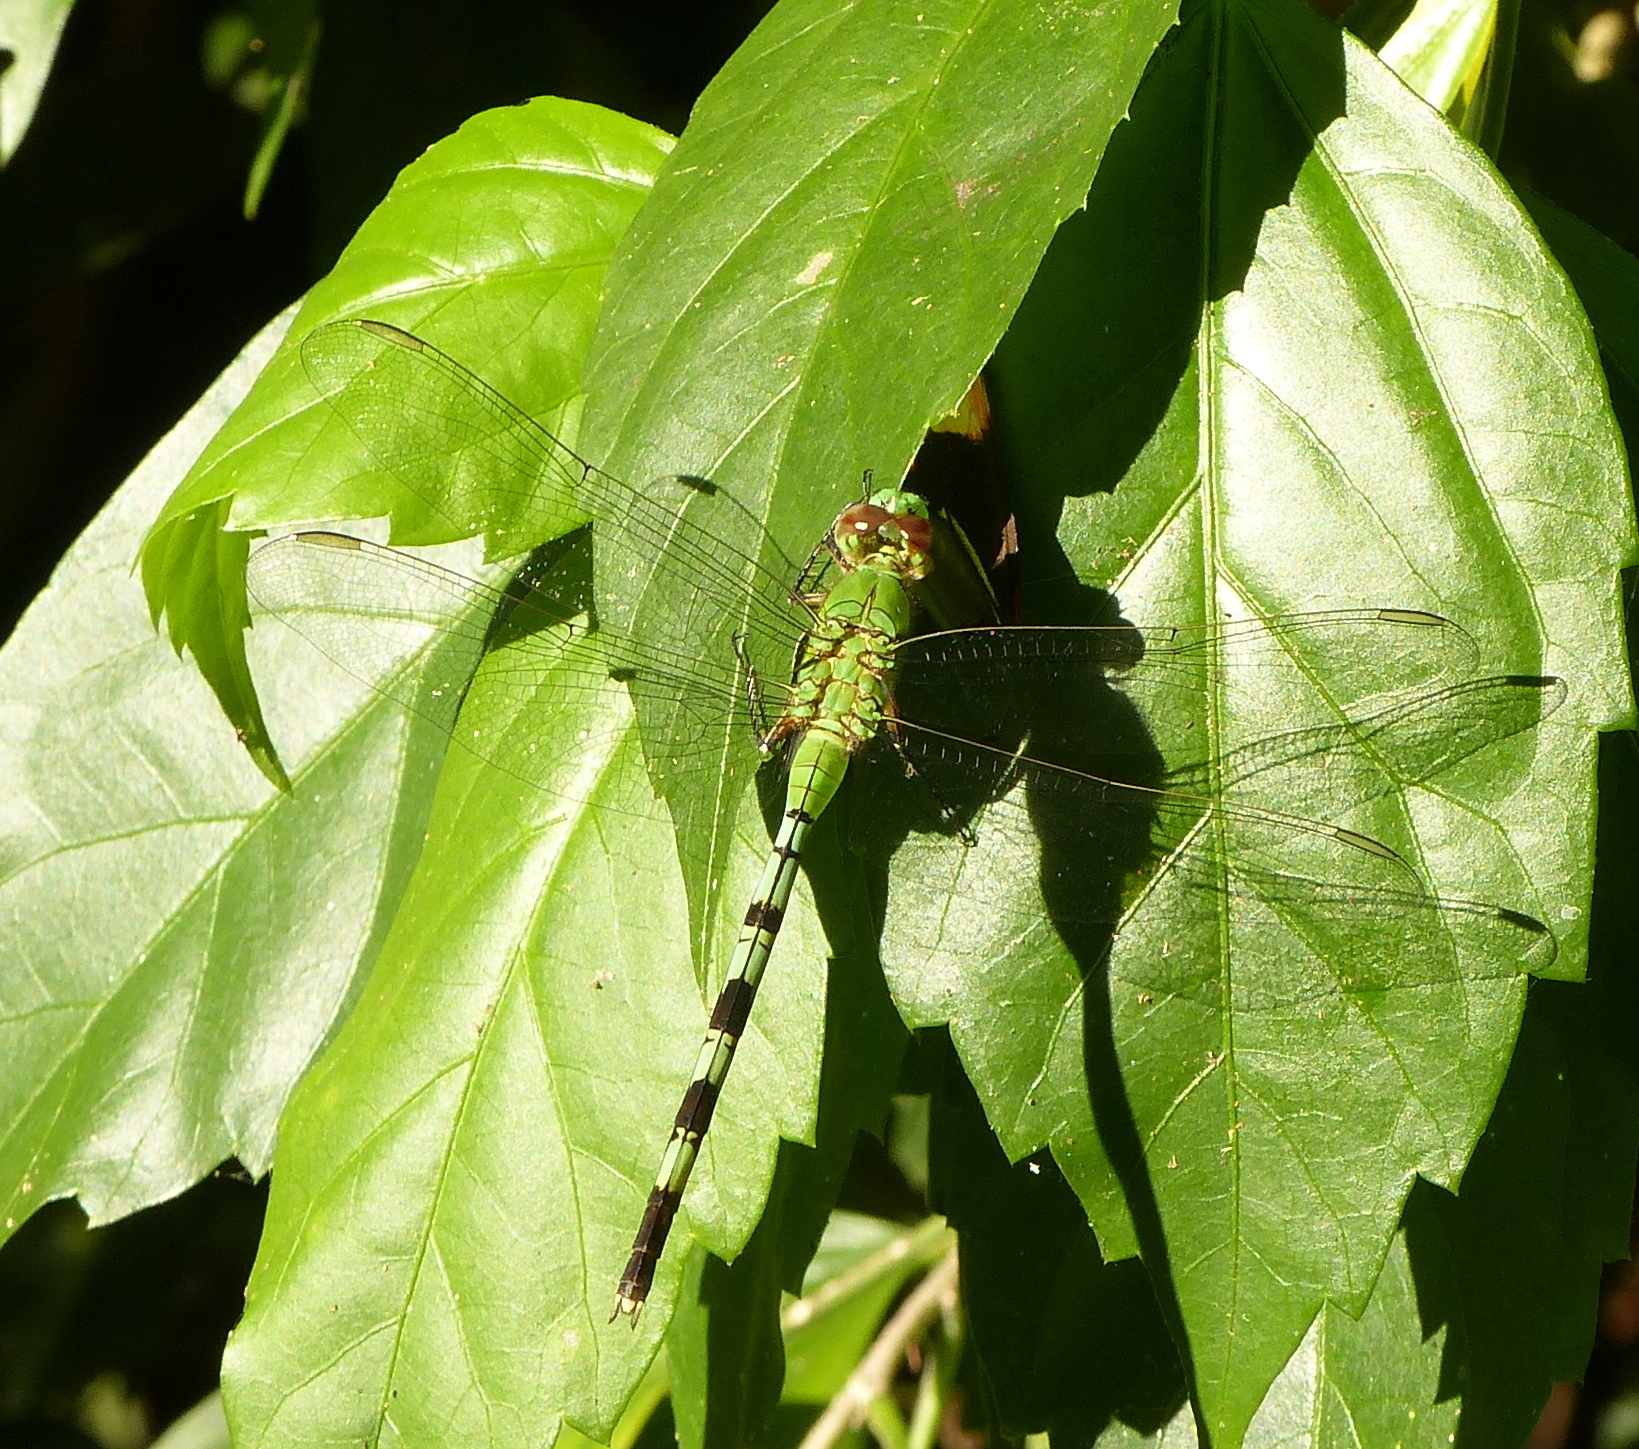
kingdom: Animalia
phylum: Arthropoda
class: Insecta
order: Odonata
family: Libellulidae
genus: Erythemis
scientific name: Erythemis vesiculosa
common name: Great pondhawk
